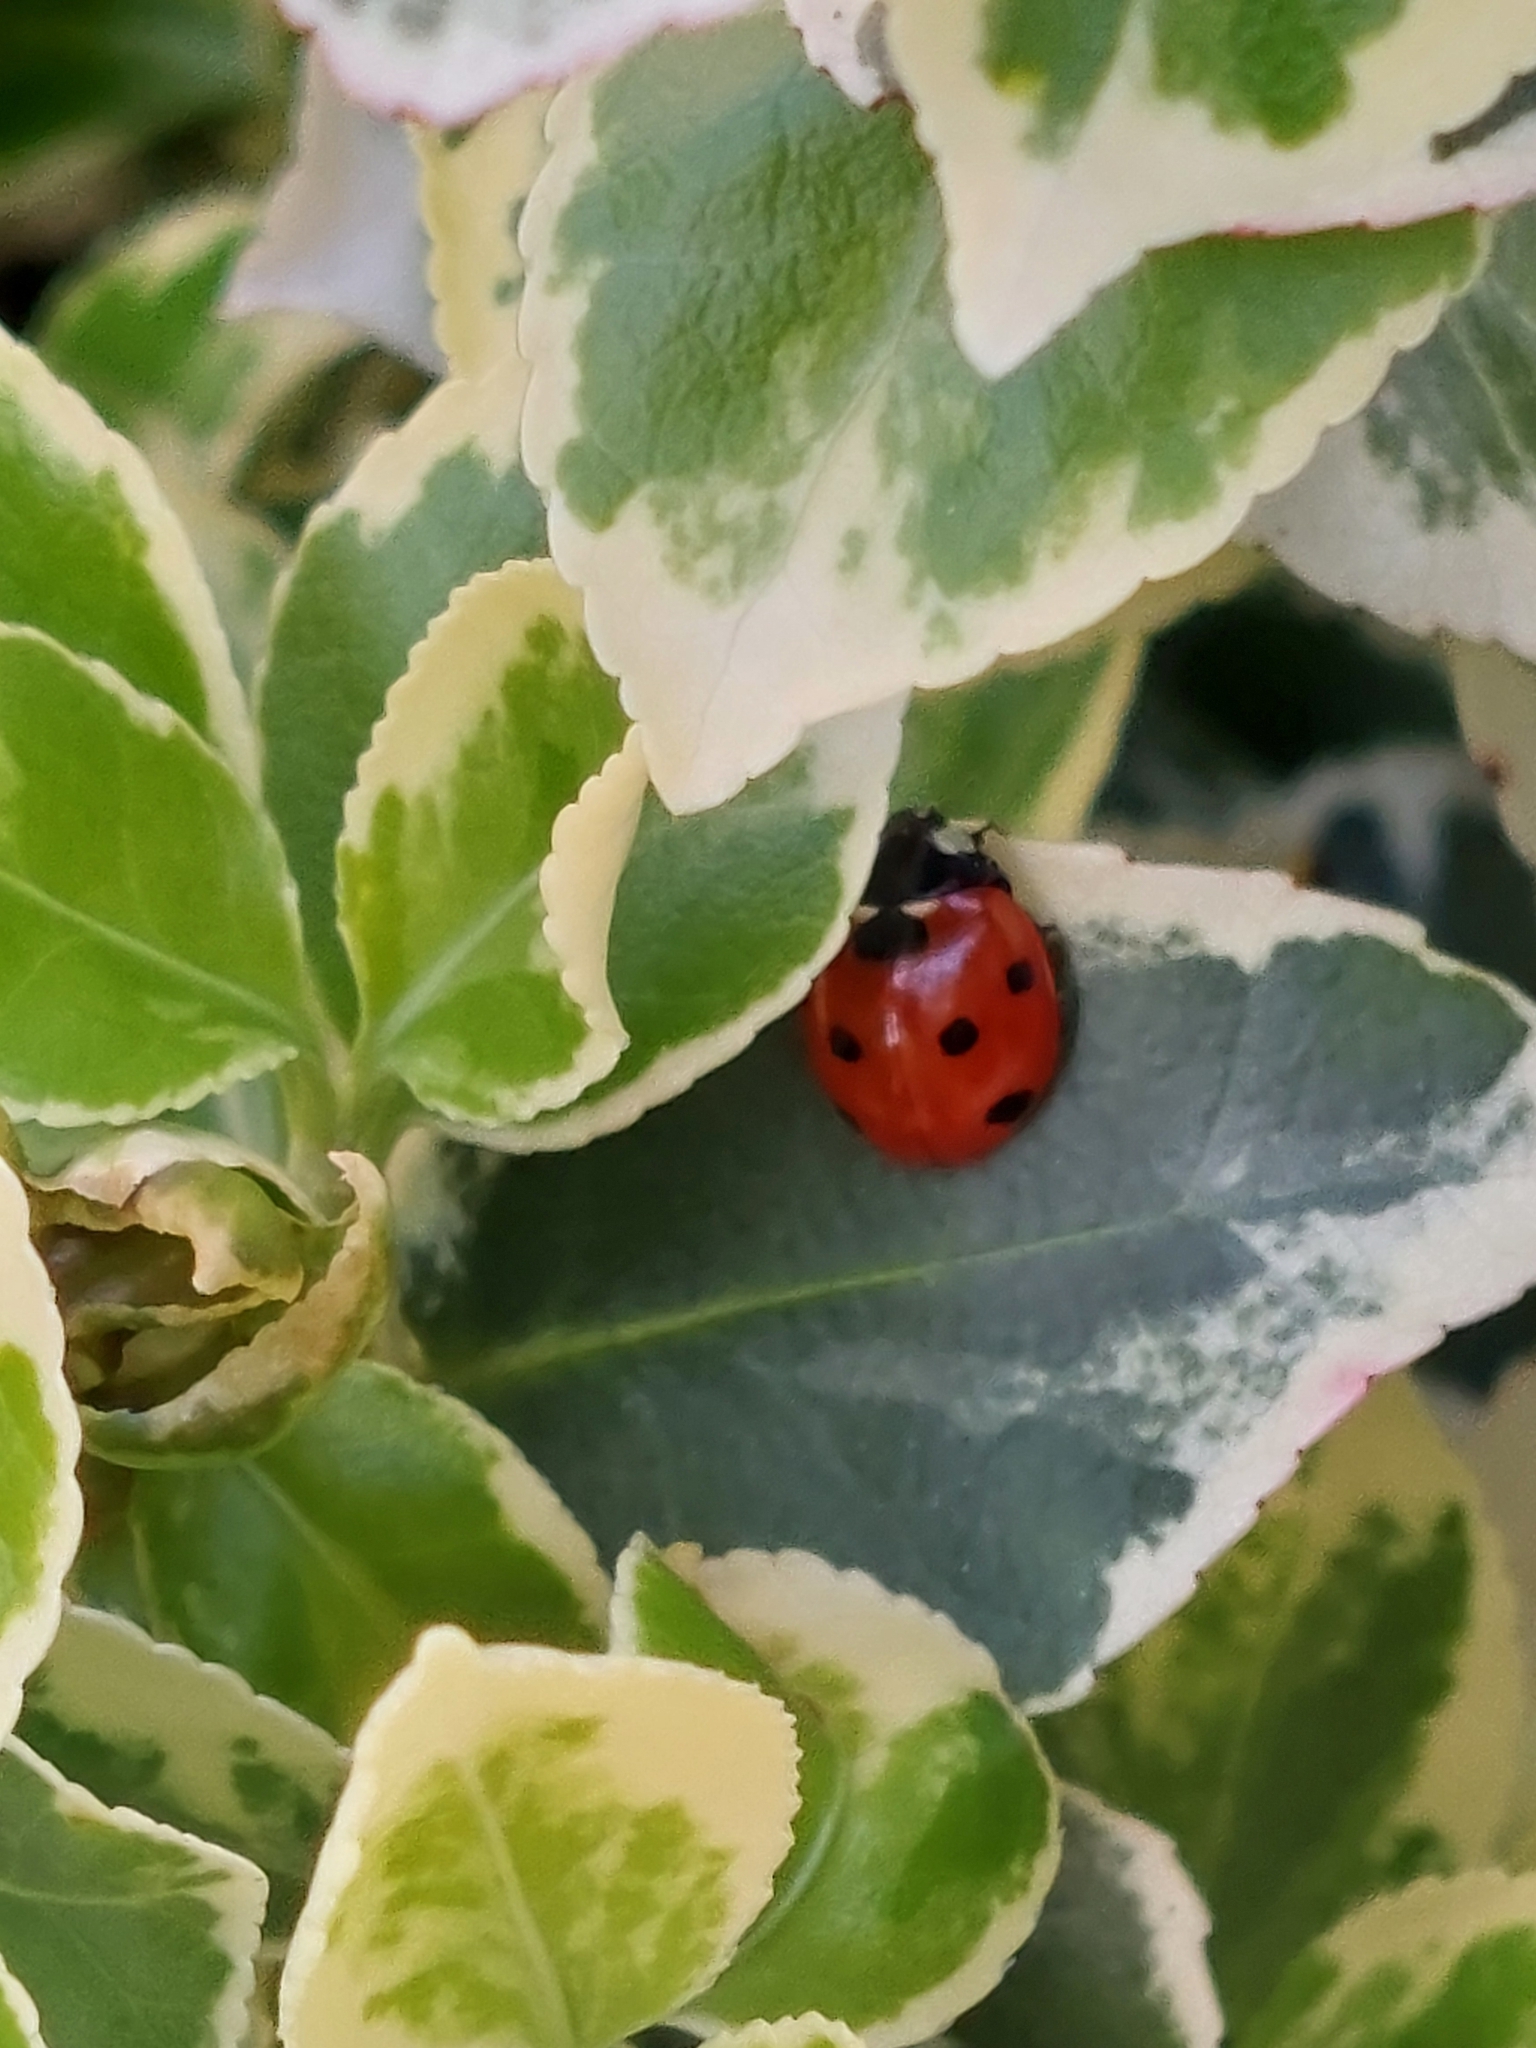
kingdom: Animalia
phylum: Arthropoda
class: Insecta
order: Coleoptera
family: Coccinellidae
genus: Coccinella
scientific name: Coccinella septempunctata
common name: Sevenspotted lady beetle
